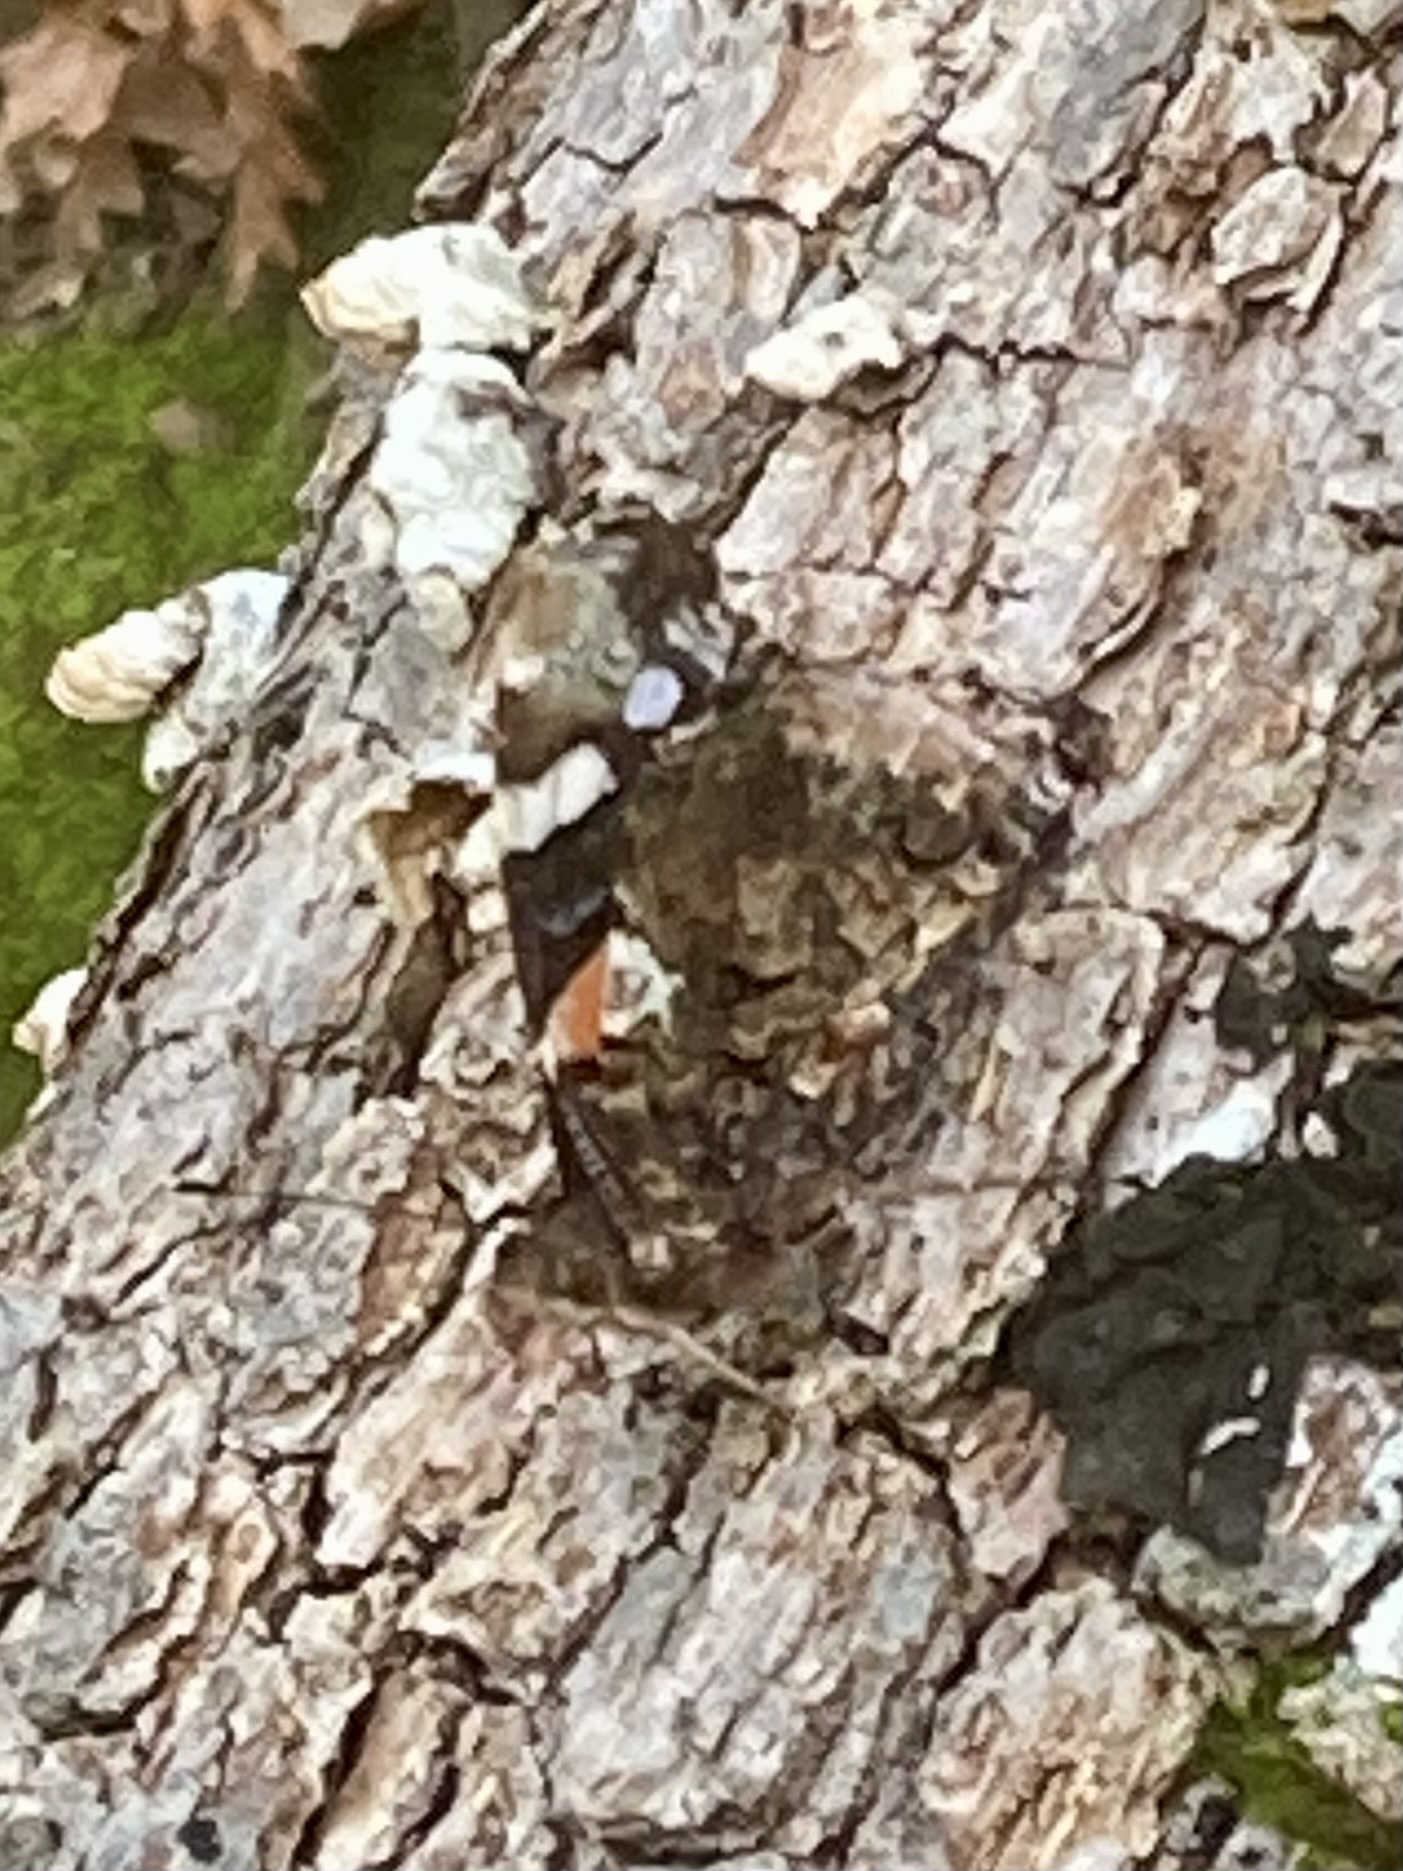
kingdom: Animalia
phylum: Arthropoda
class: Insecta
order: Lepidoptera
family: Nymphalidae
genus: Vanessa
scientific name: Vanessa atalanta
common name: Red admiral
